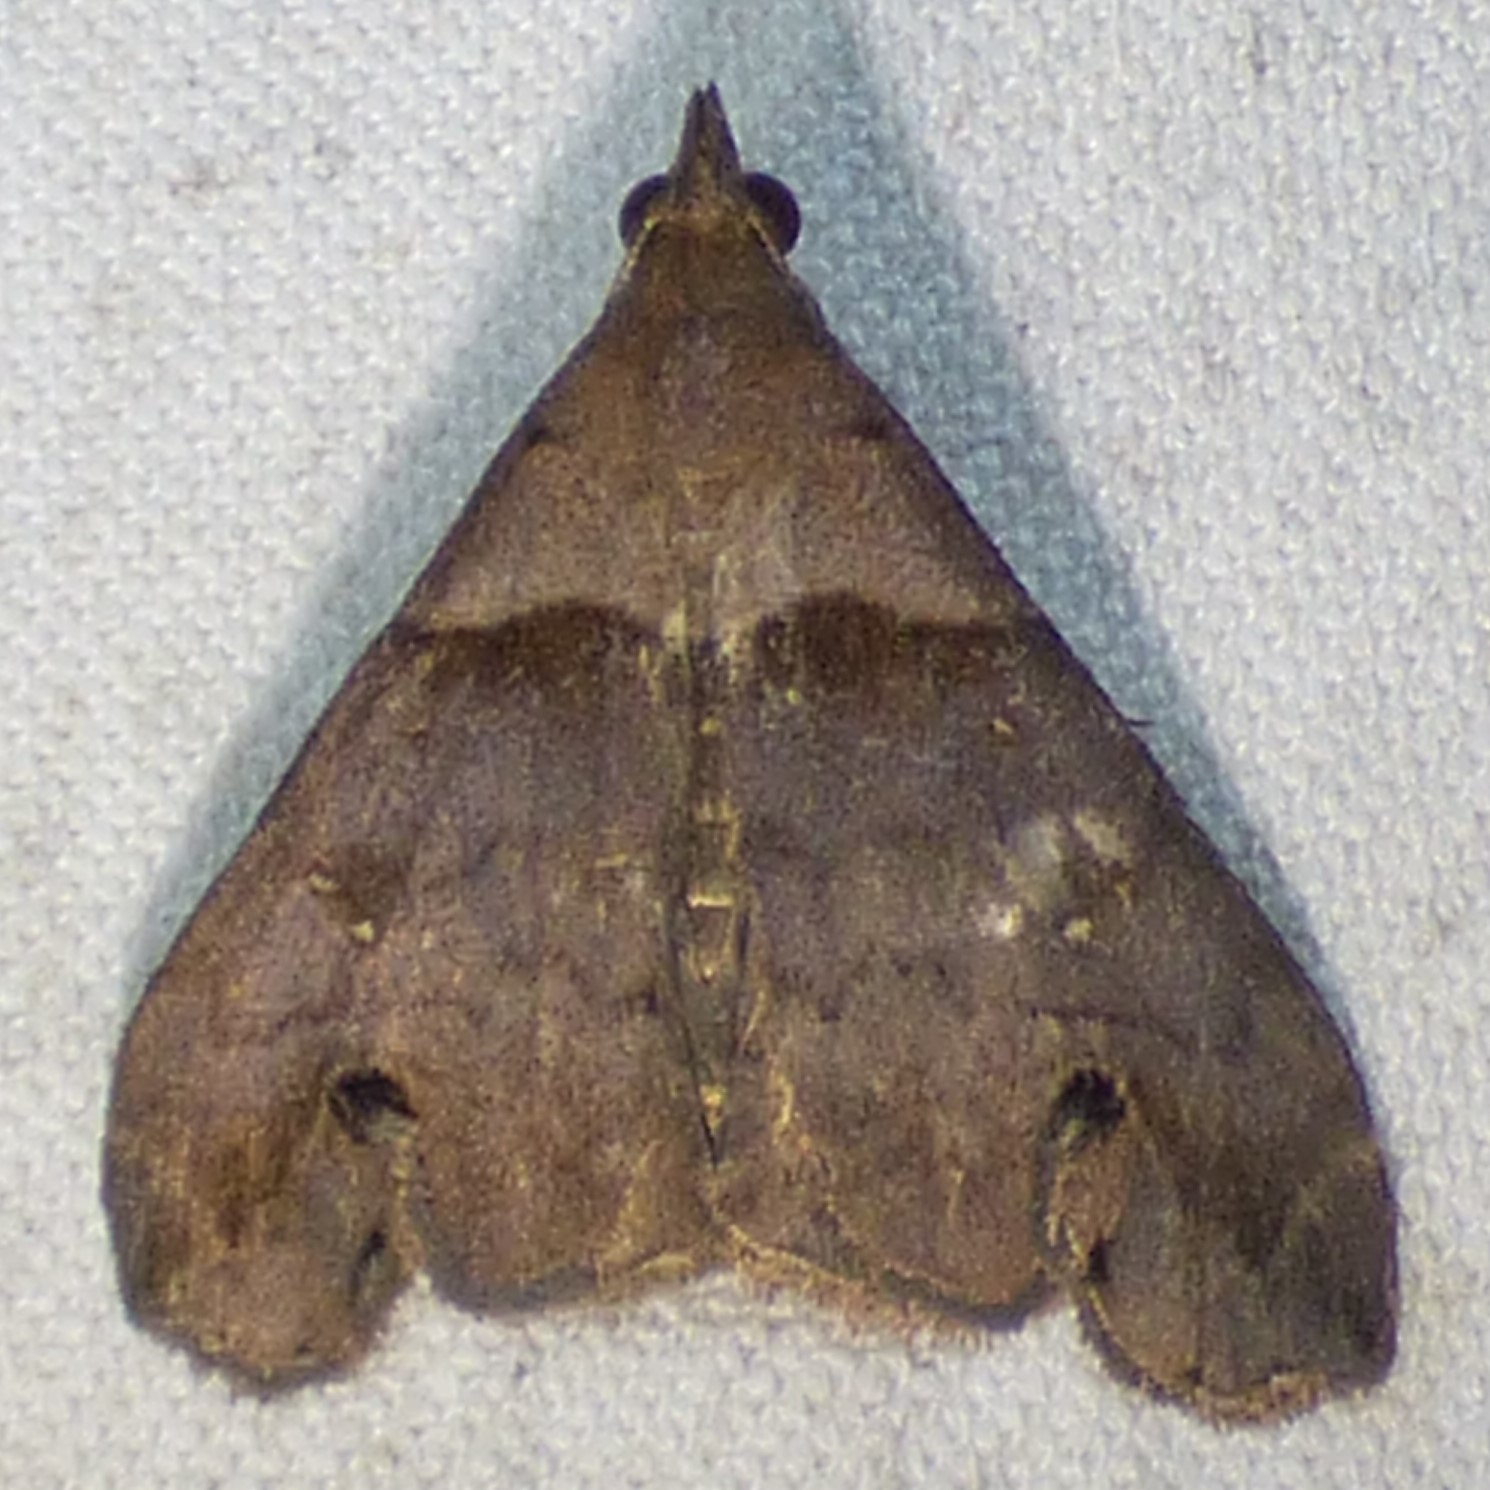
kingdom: Animalia
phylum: Arthropoda
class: Insecta
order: Lepidoptera
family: Erebidae
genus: Lascoria
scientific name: Lascoria ambigualis
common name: Ambiguous moth
